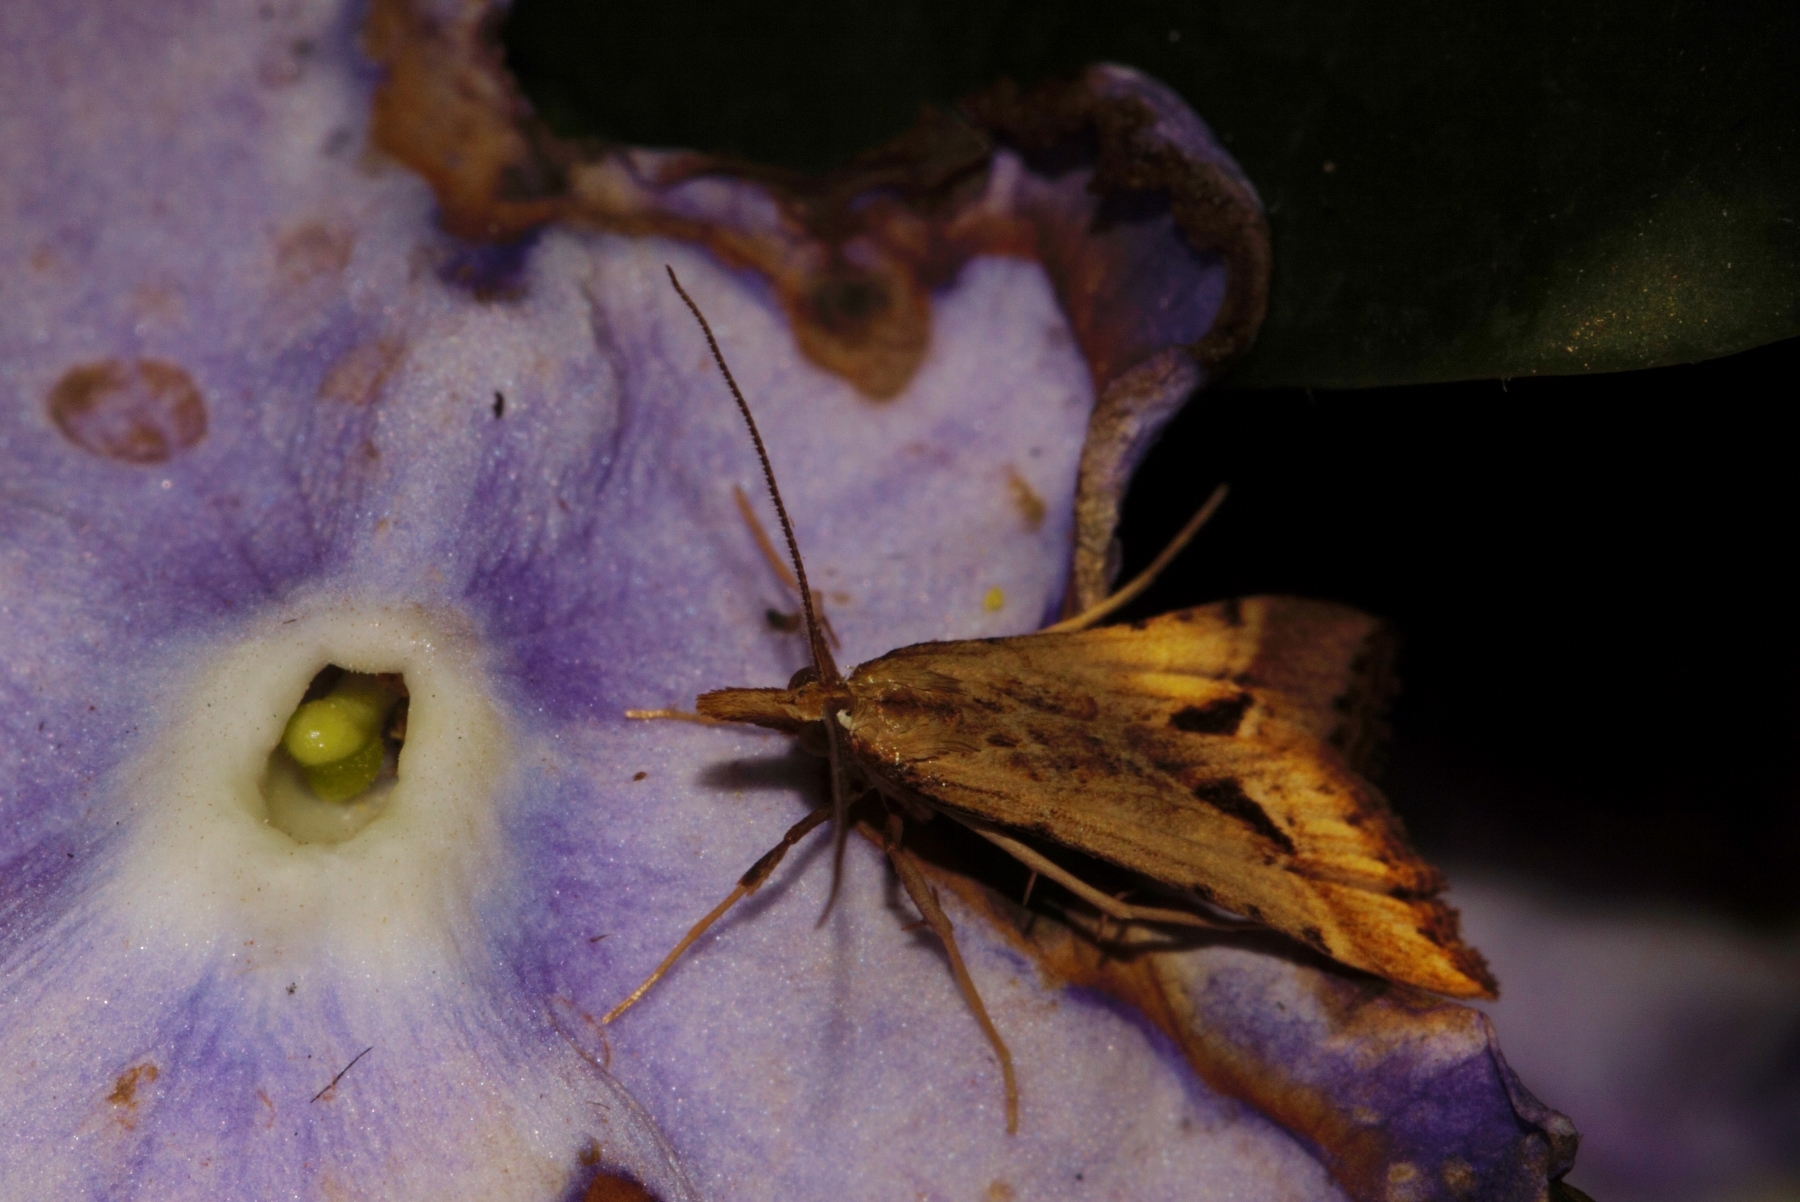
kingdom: Animalia
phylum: Arthropoda
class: Insecta
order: Lepidoptera
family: Crambidae
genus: Diasemia
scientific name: Diasemia monostigma
